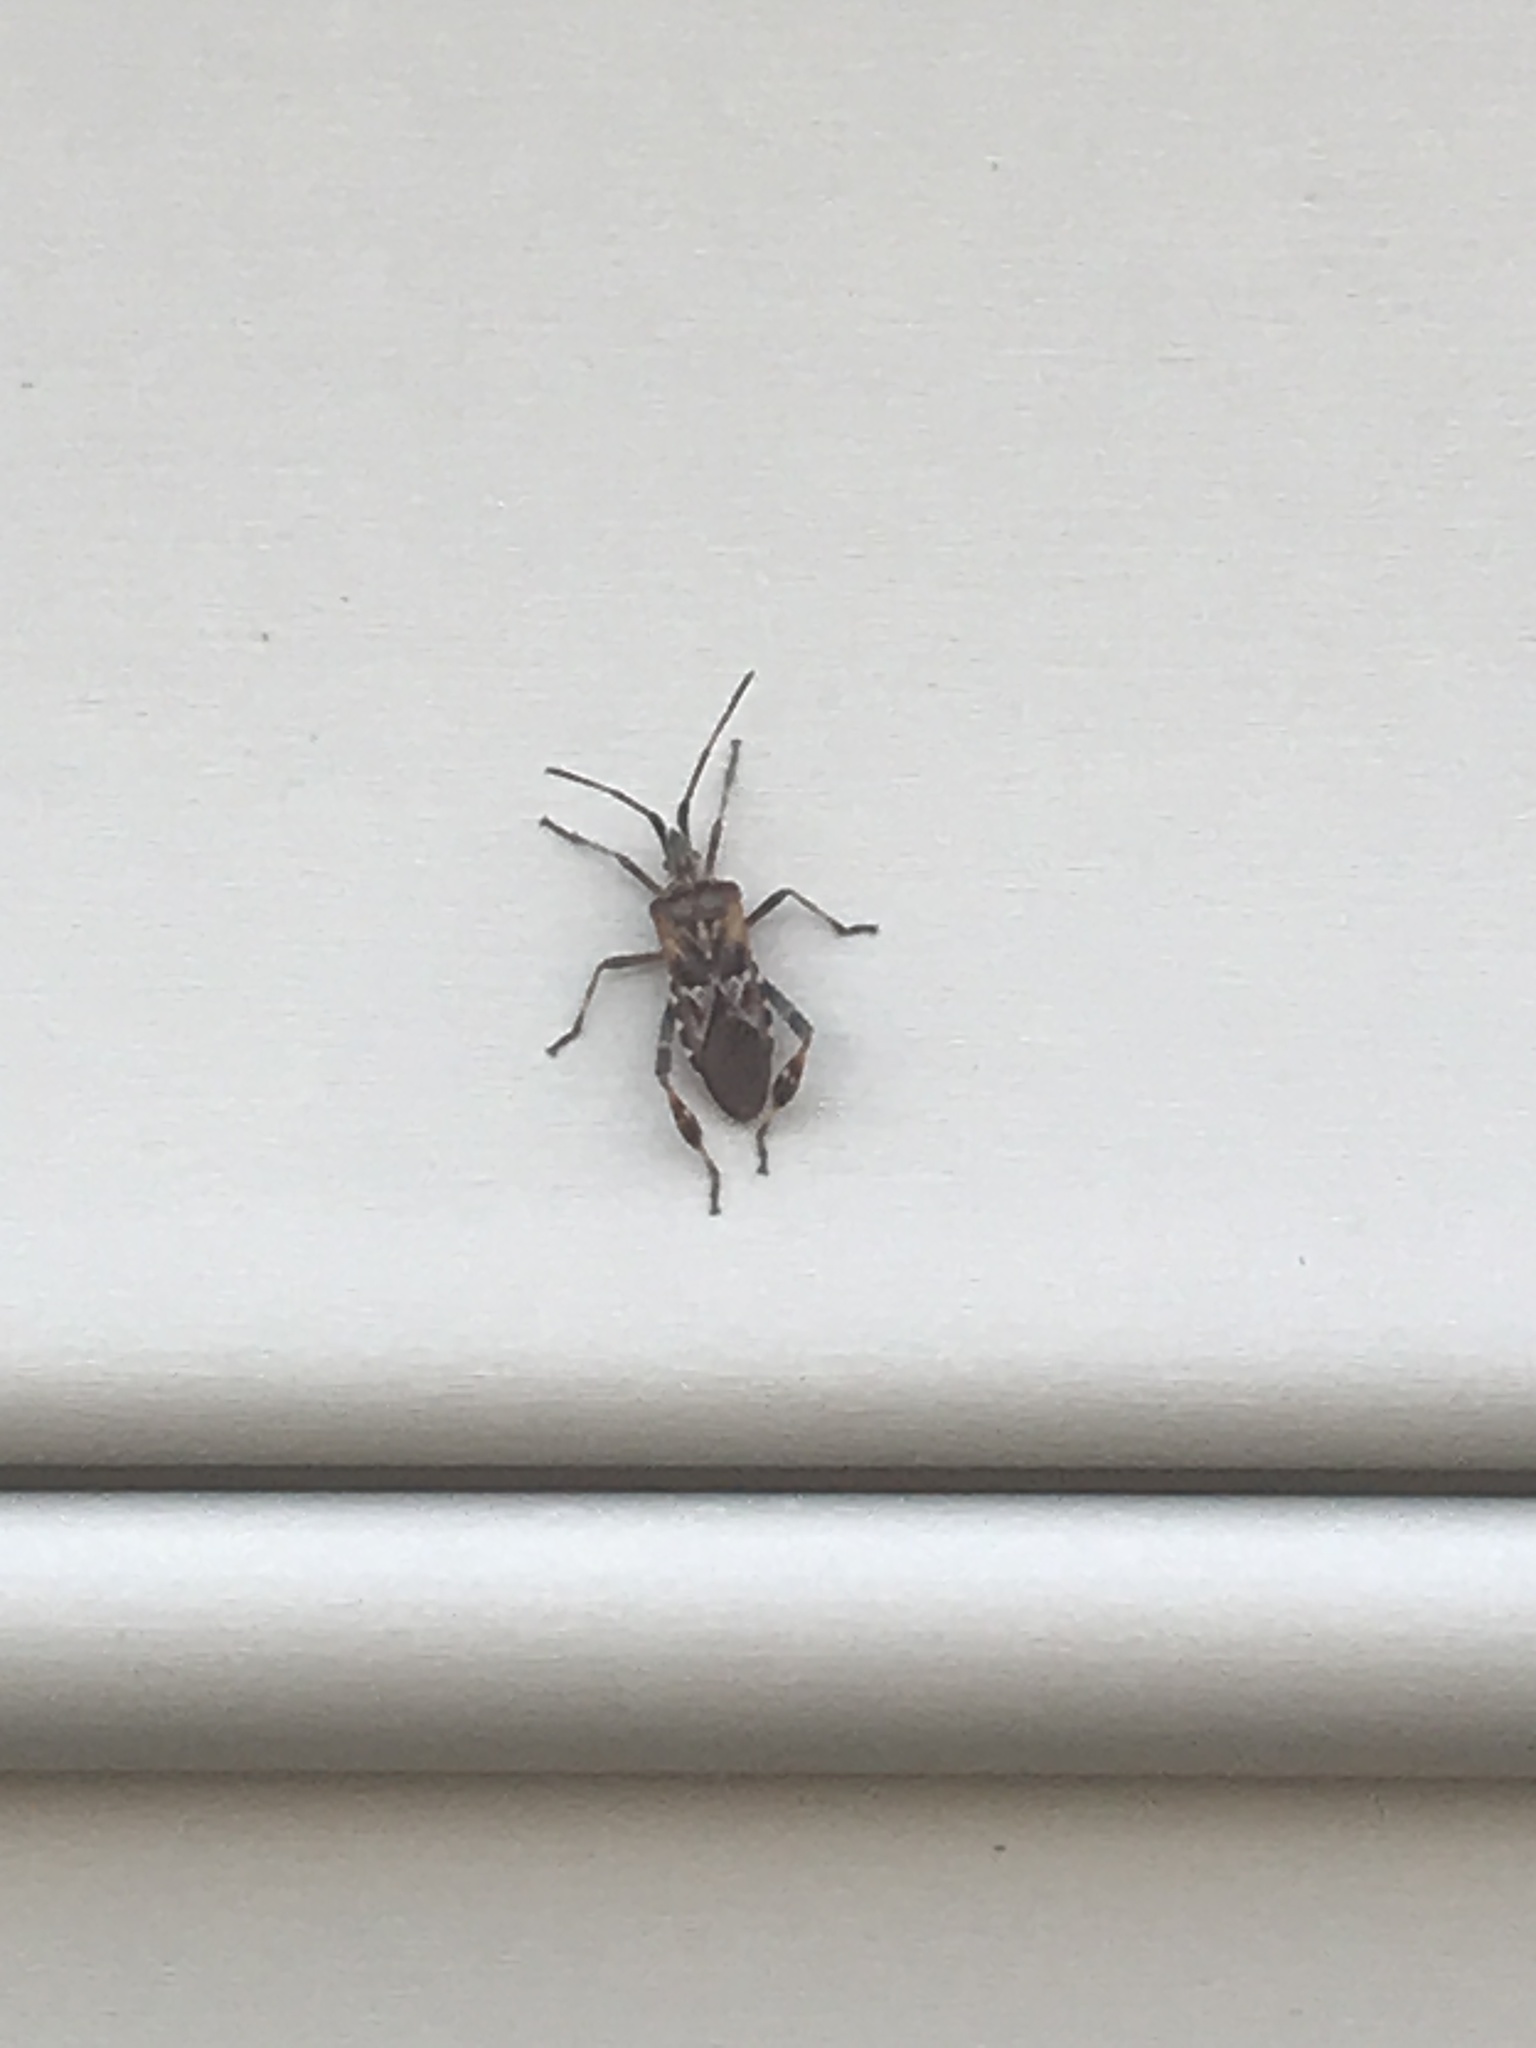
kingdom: Animalia
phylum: Arthropoda
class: Insecta
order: Hemiptera
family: Coreidae
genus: Leptoglossus
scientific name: Leptoglossus occidentalis
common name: Western conifer-seed bug
